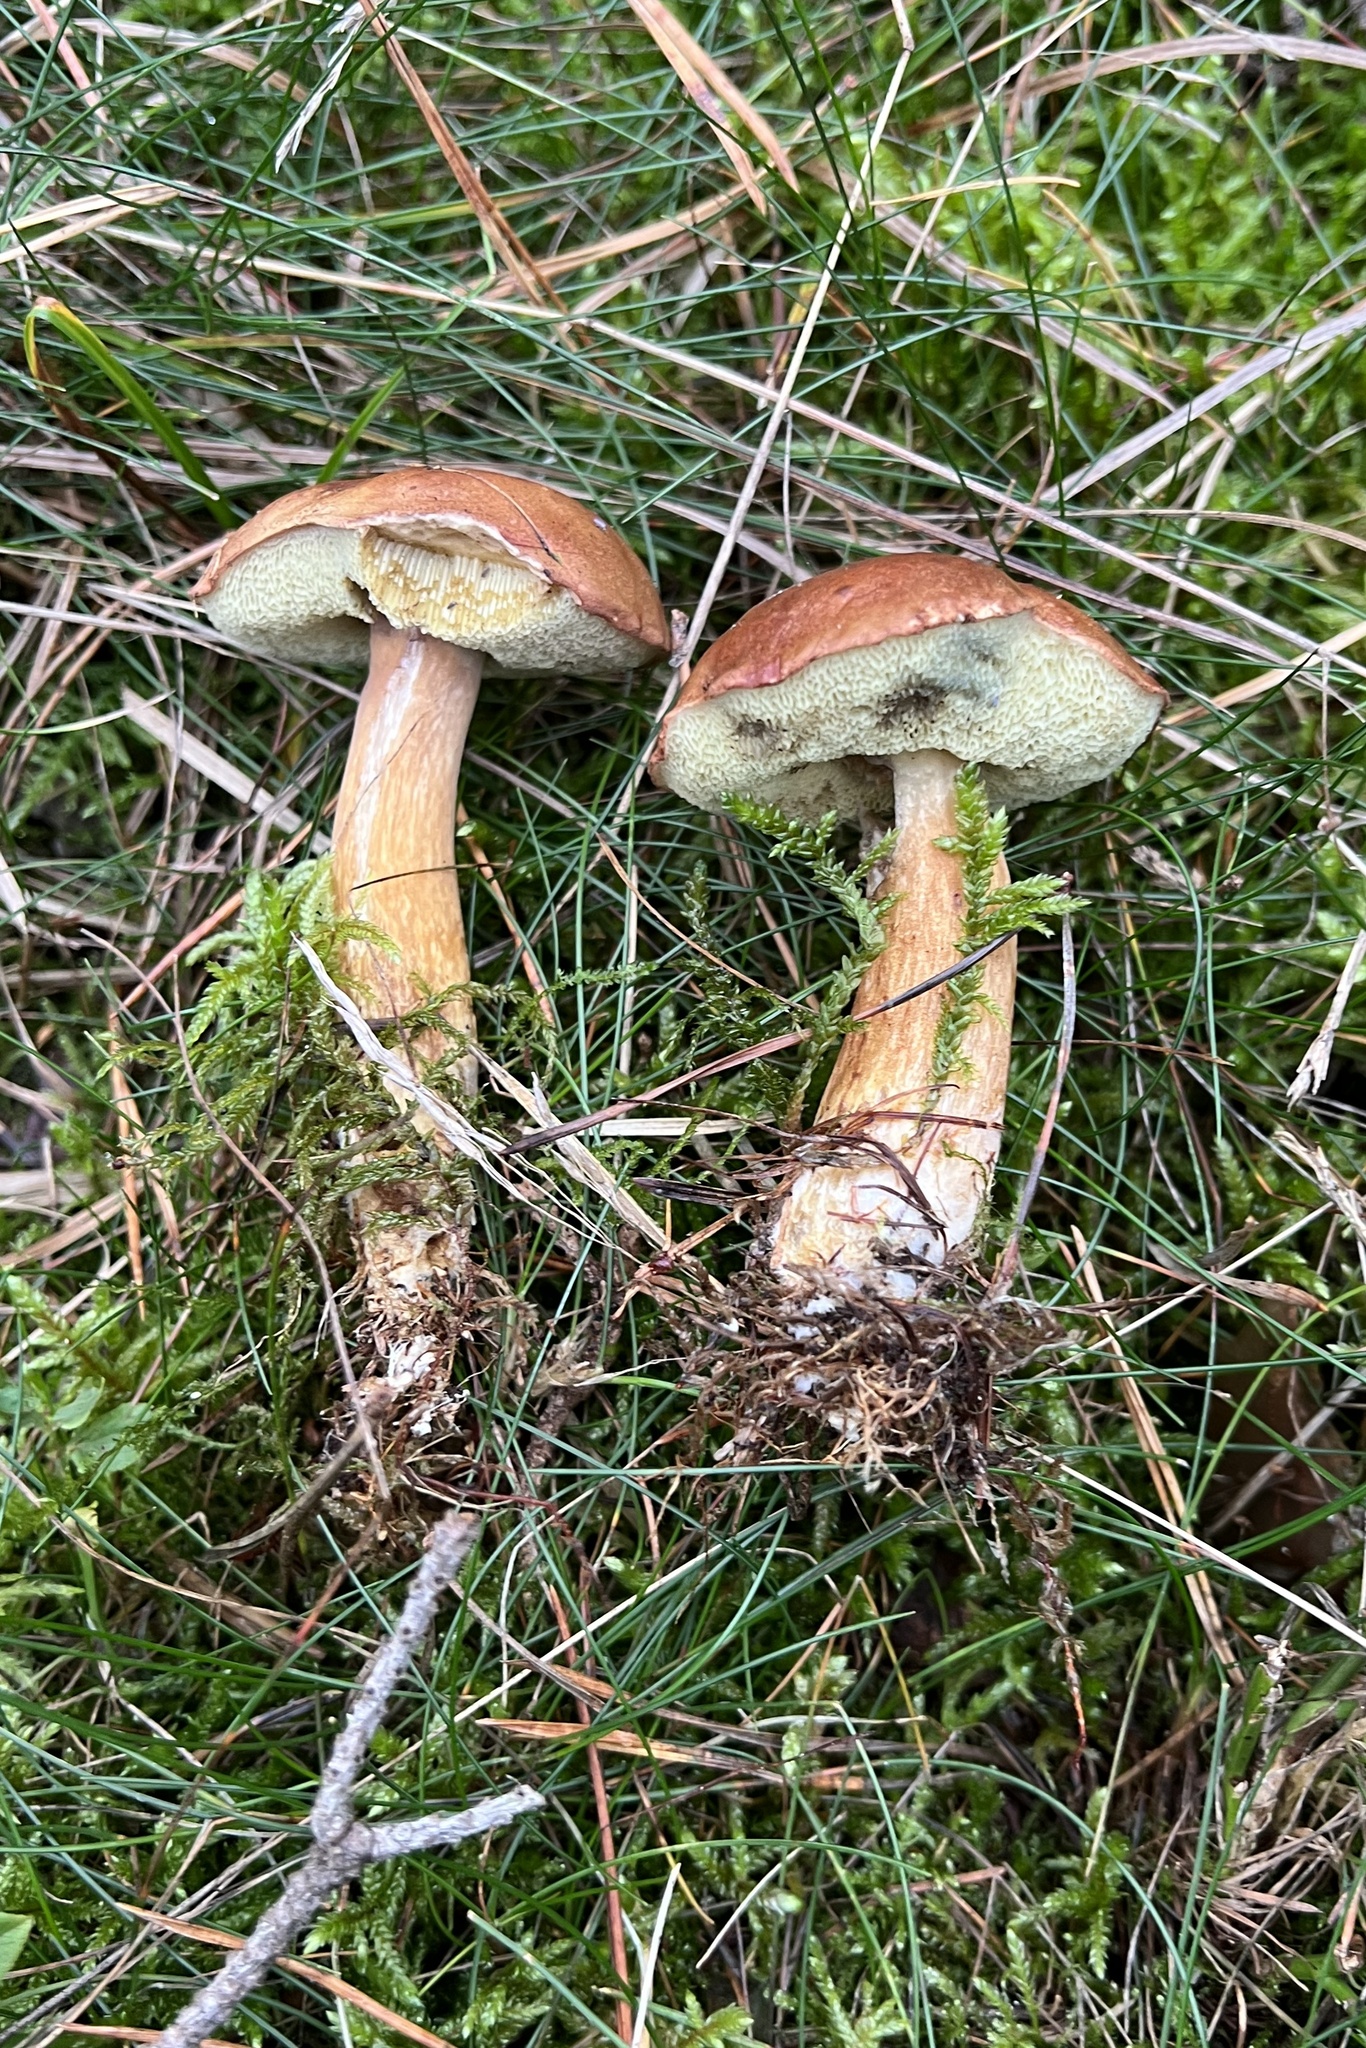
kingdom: Fungi
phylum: Basidiomycota
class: Agaricomycetes
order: Boletales
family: Boletaceae
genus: Imleria
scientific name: Imleria badia
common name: Bay bolete
